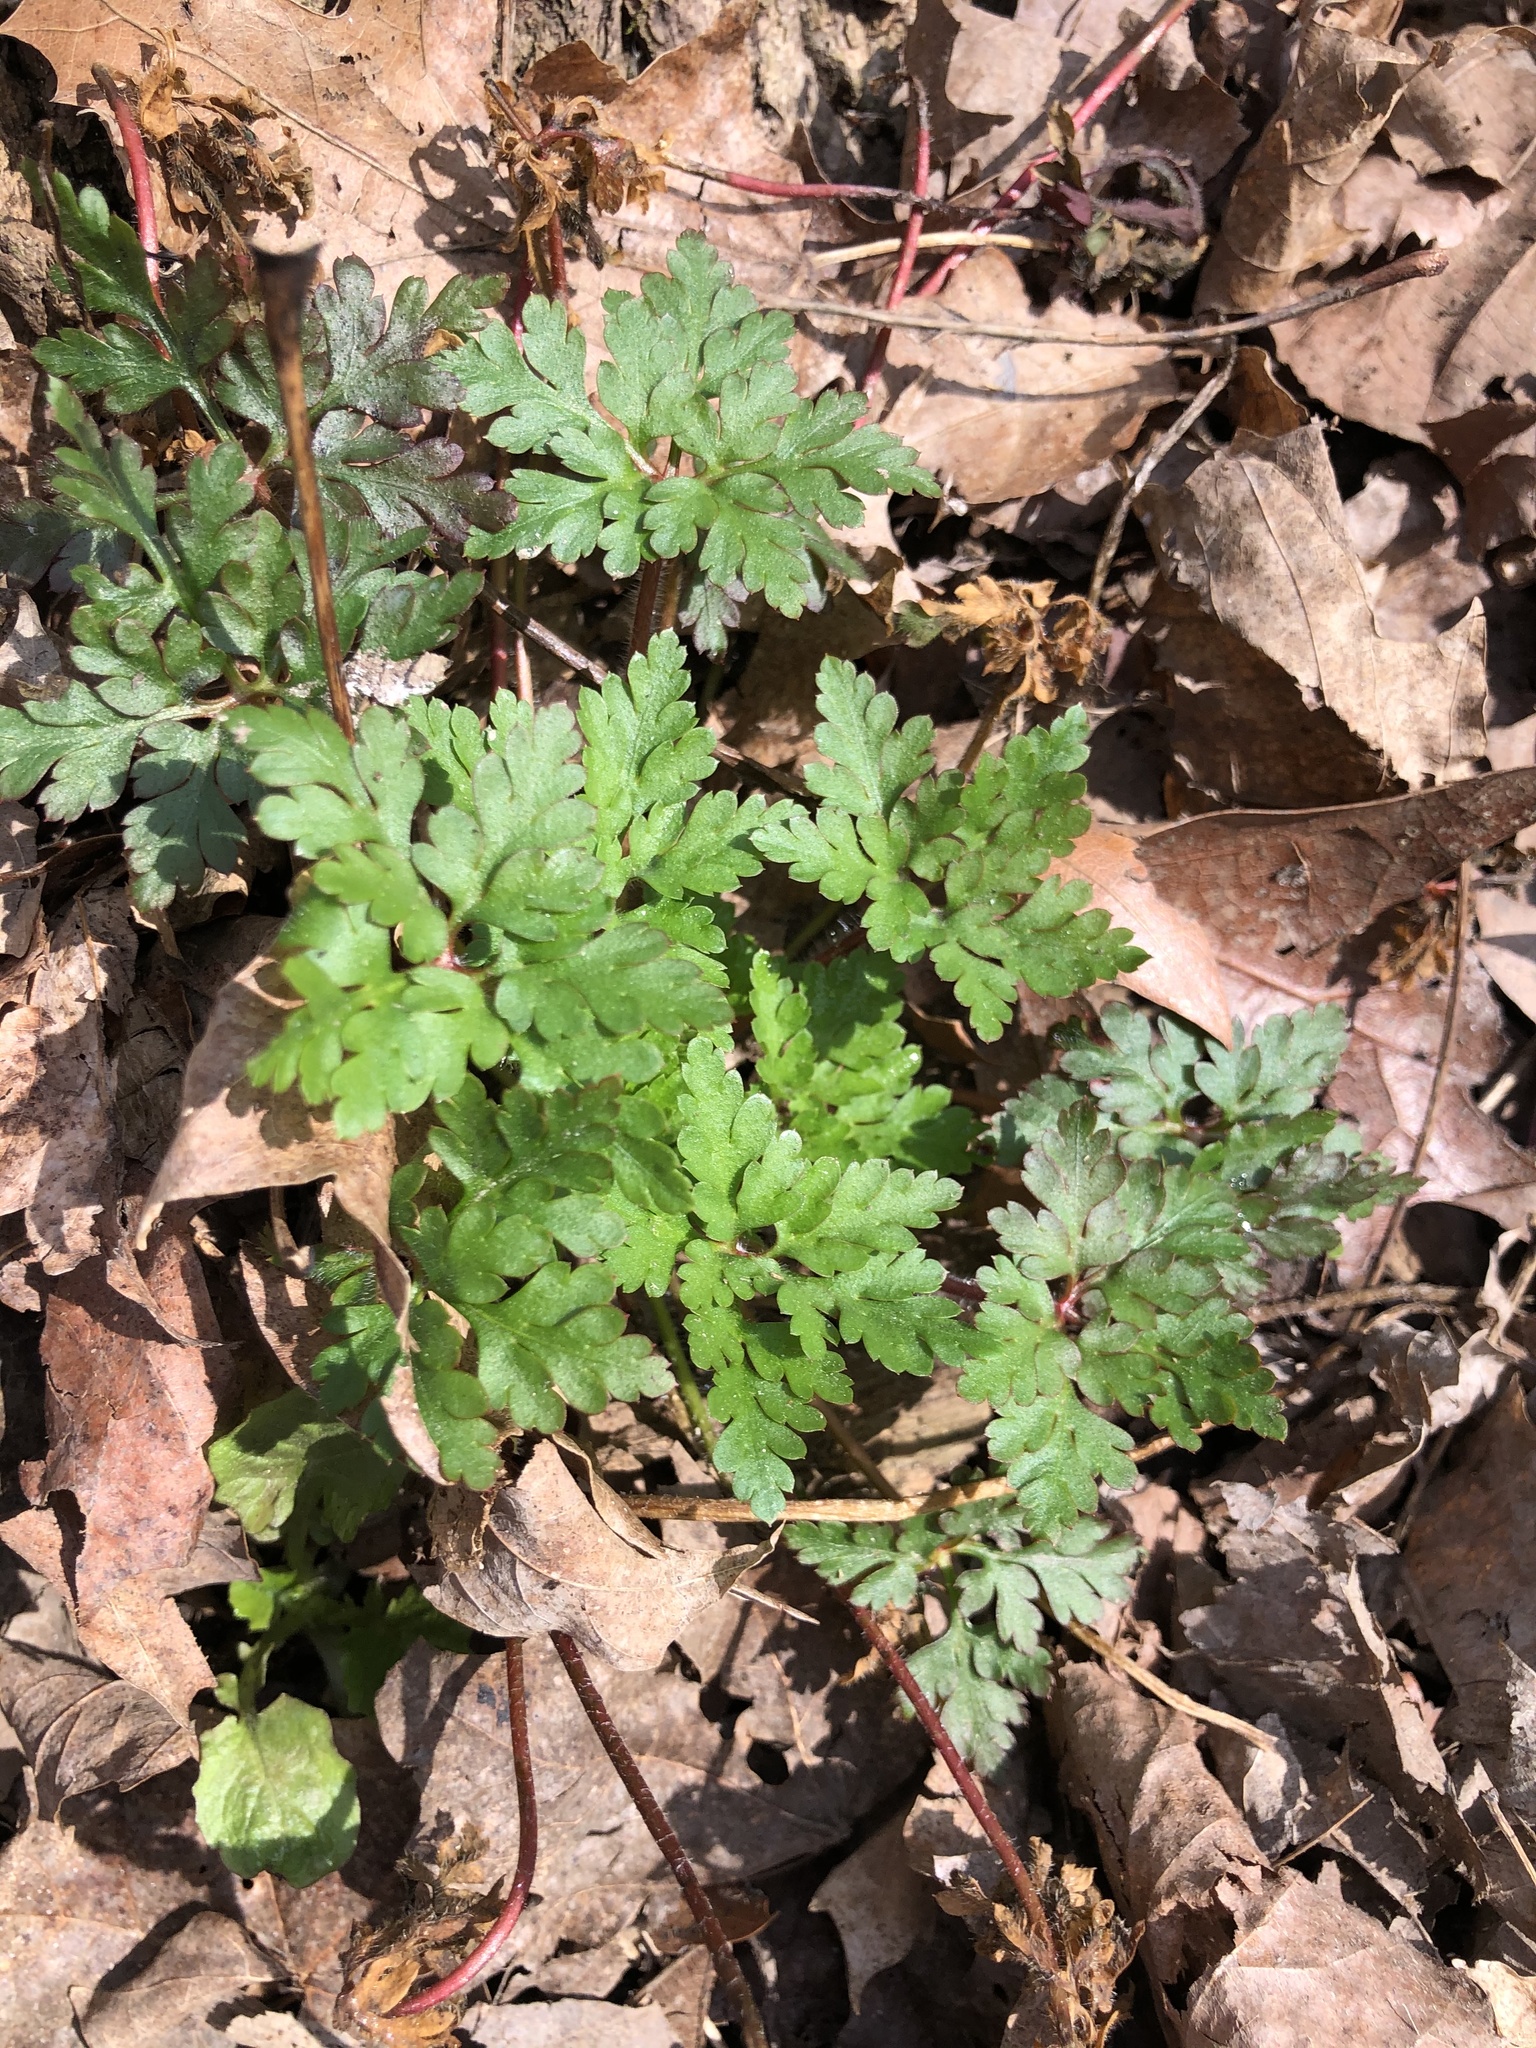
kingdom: Plantae
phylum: Tracheophyta
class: Magnoliopsida
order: Geraniales
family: Geraniaceae
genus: Geranium
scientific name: Geranium robertianum
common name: Herb-robert
